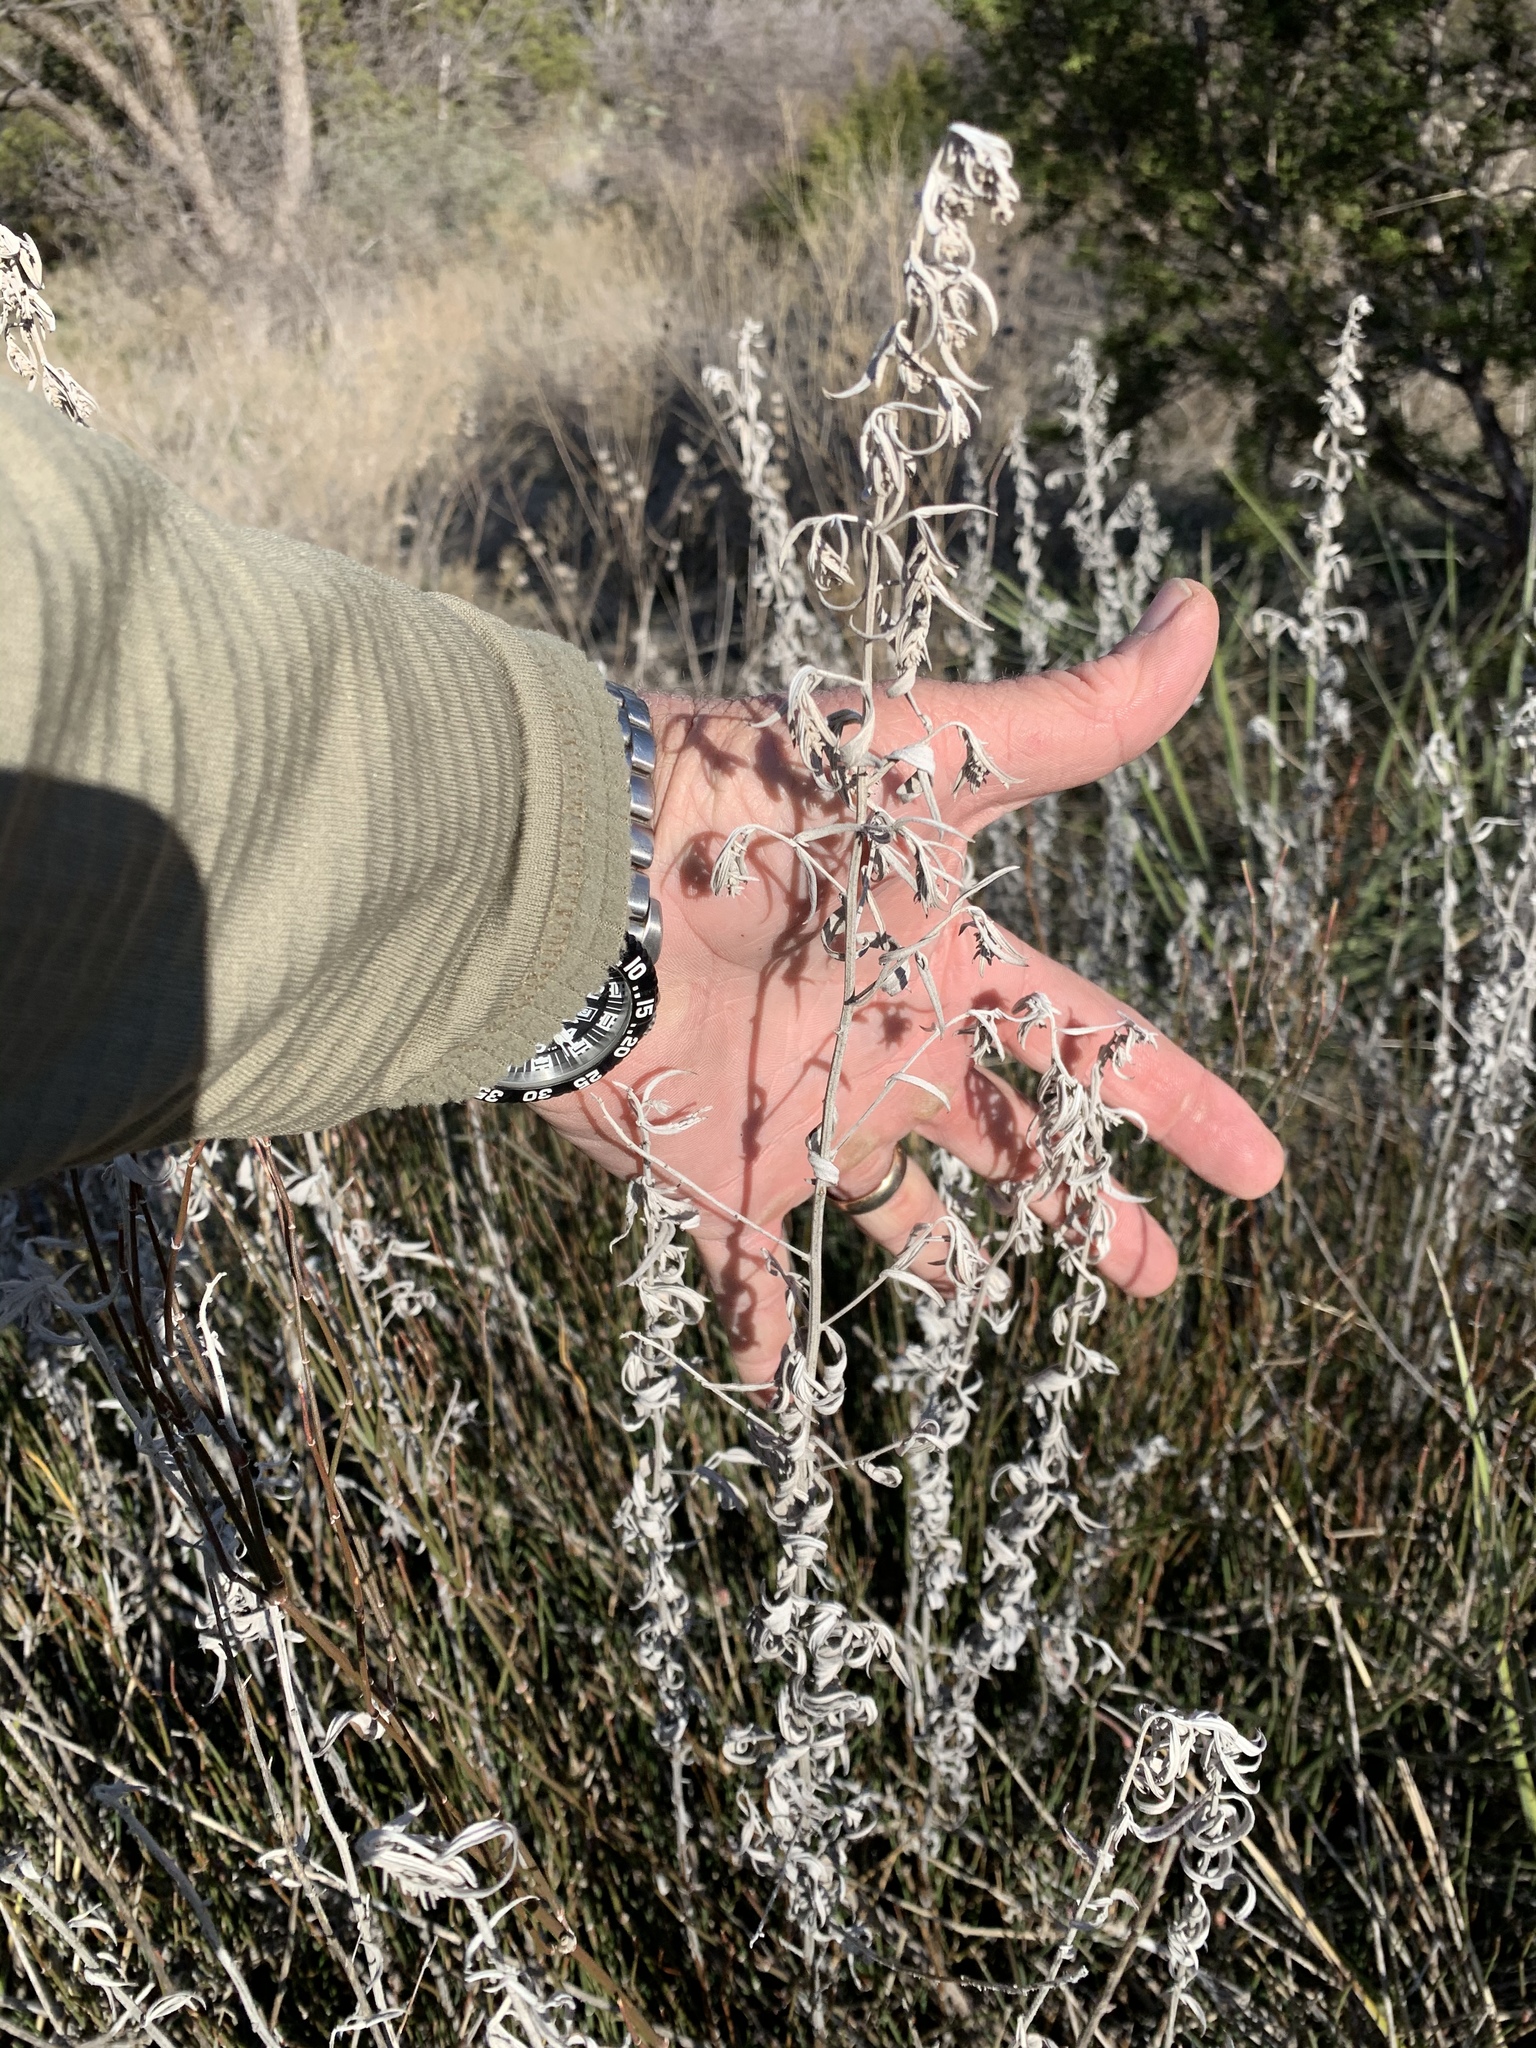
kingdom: Plantae
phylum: Tracheophyta
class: Magnoliopsida
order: Asterales
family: Asteraceae
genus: Artemisia
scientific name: Artemisia ludoviciana
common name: Western mugwort
